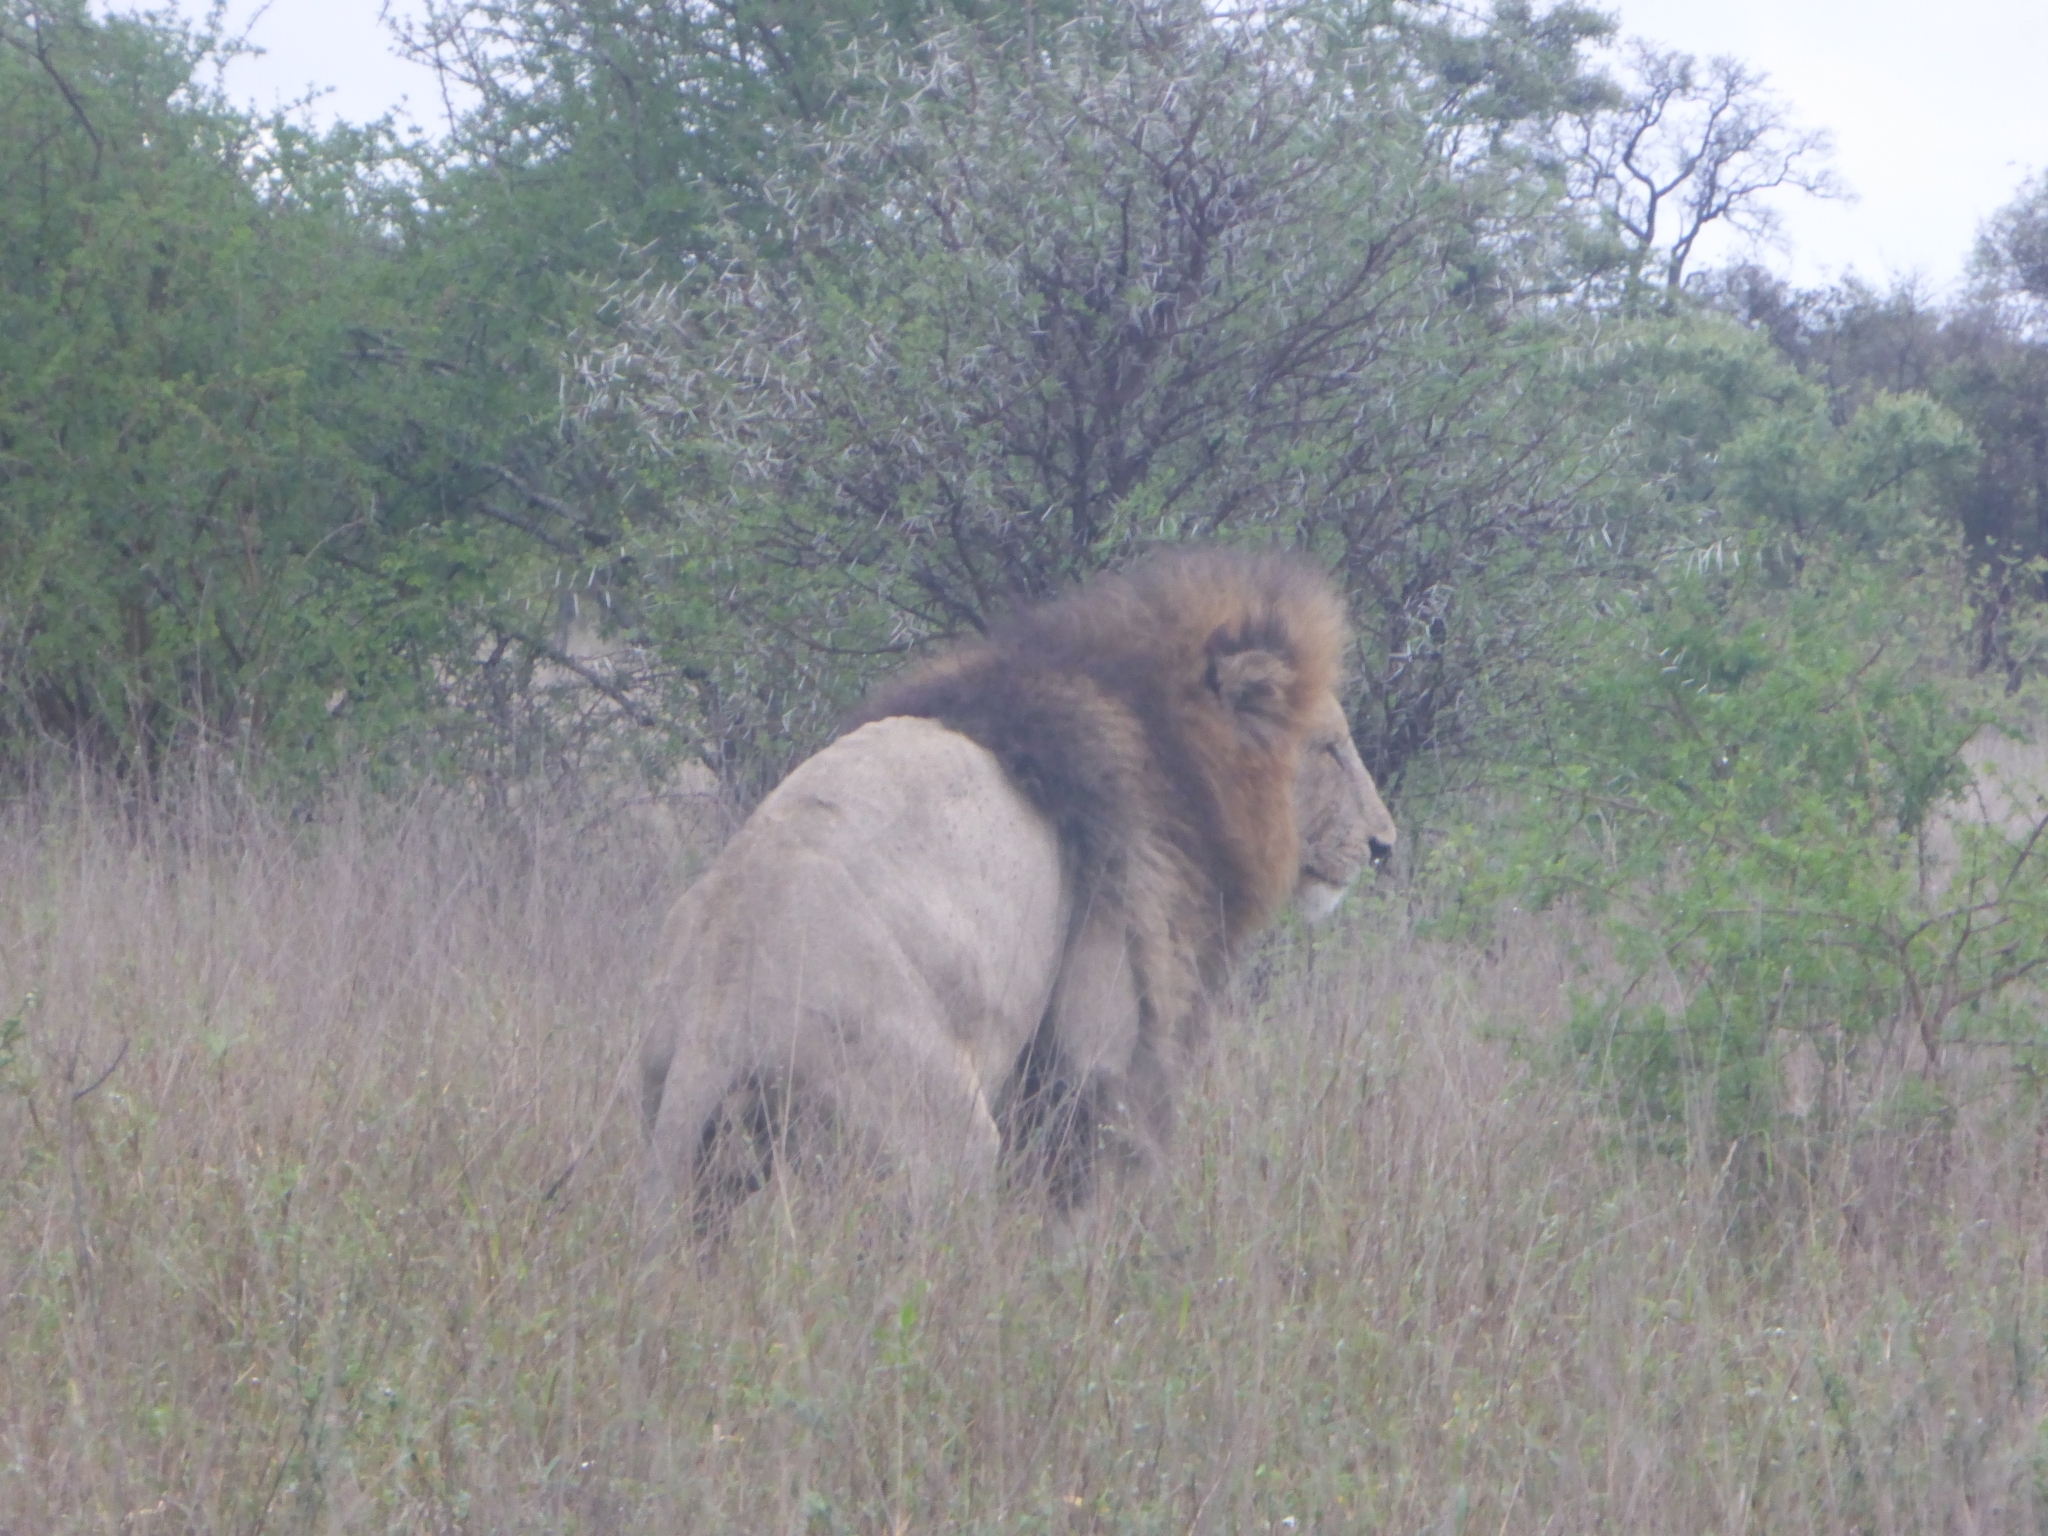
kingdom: Animalia
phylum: Chordata
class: Mammalia
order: Carnivora
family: Felidae
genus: Panthera
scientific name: Panthera leo
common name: Lion
